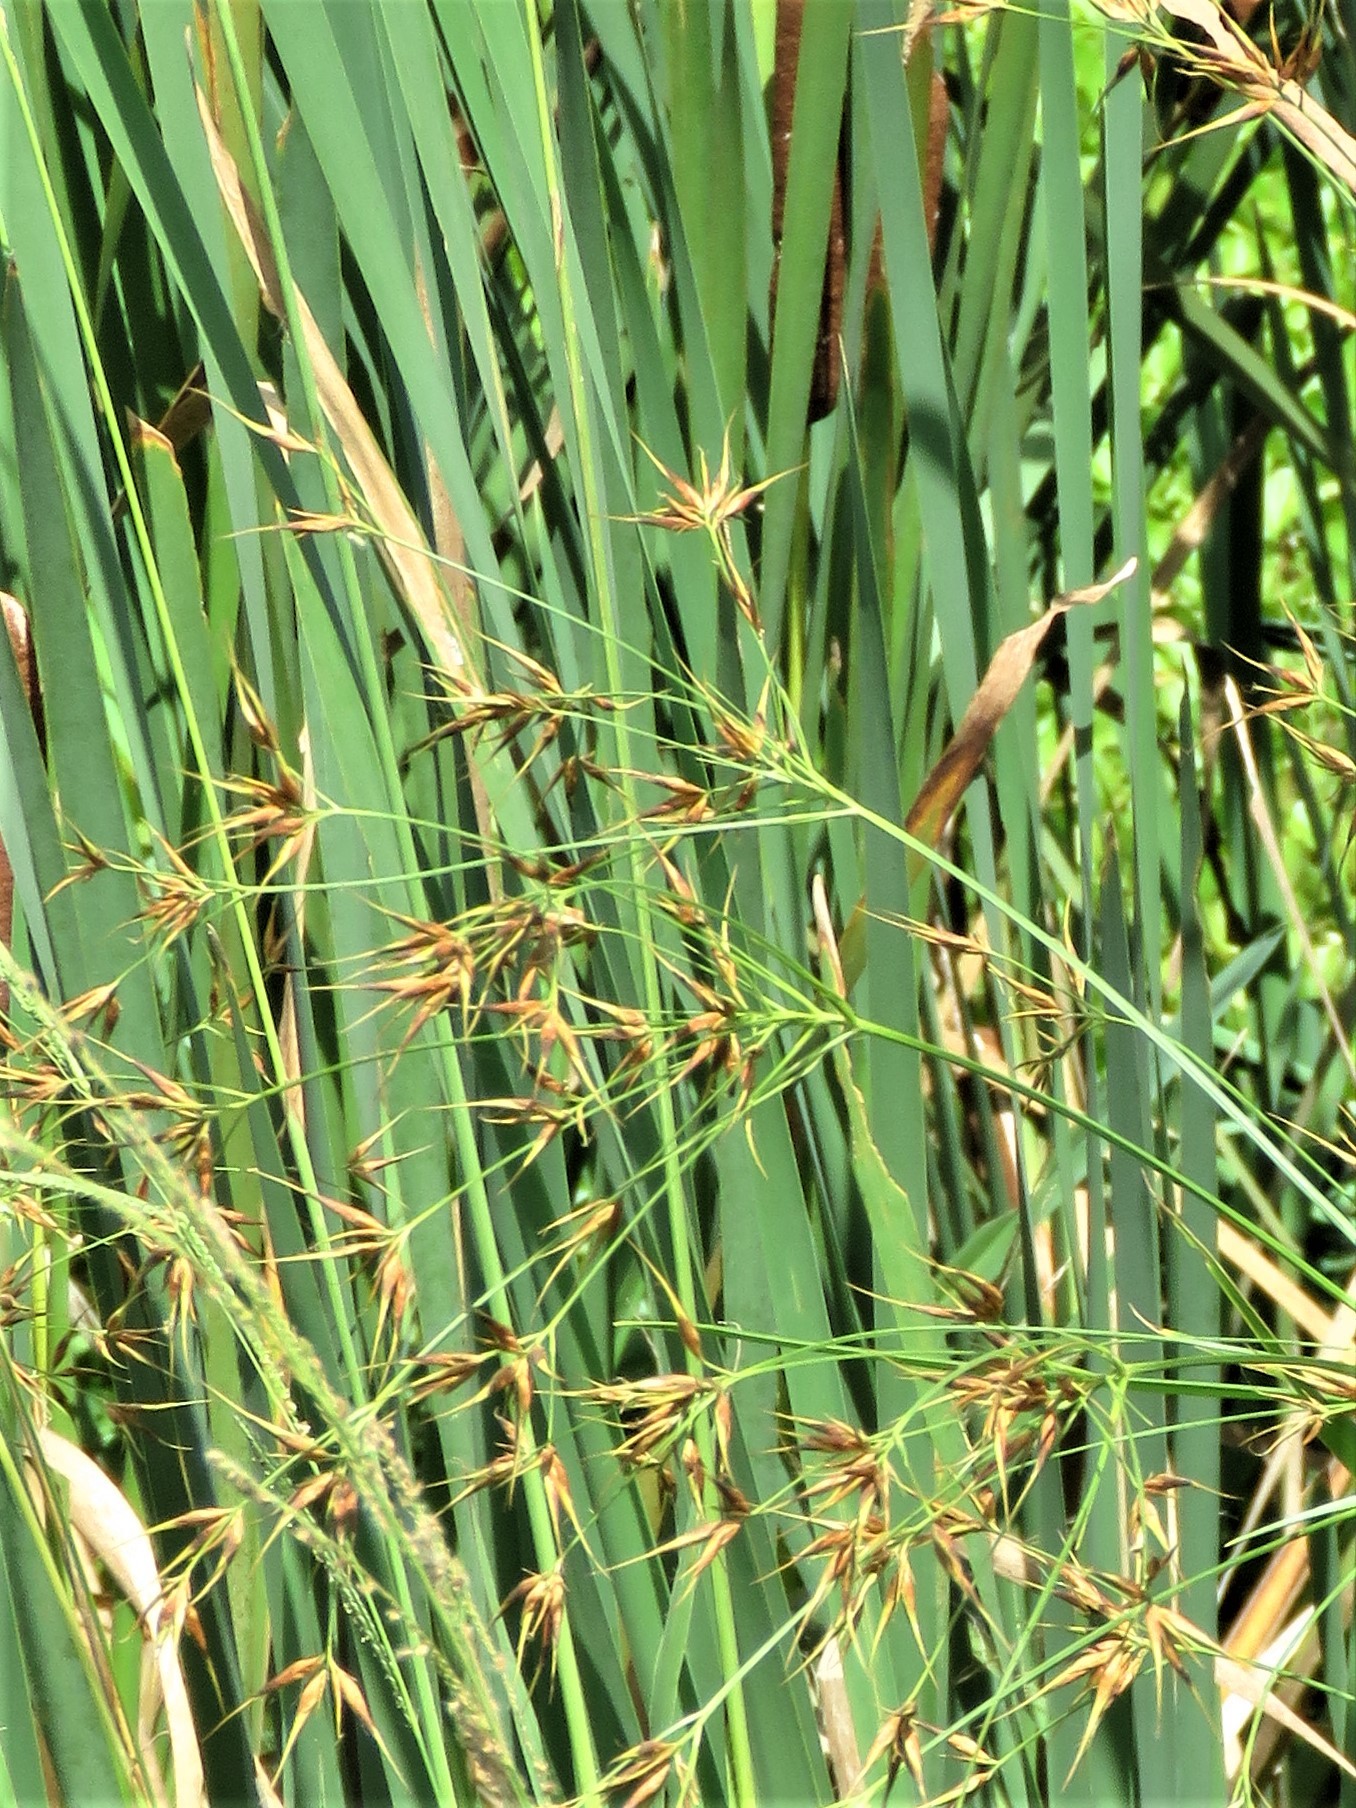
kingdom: Plantae
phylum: Tracheophyta
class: Liliopsida
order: Poales
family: Cyperaceae
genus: Rhynchospora
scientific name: Rhynchospora corniculata
